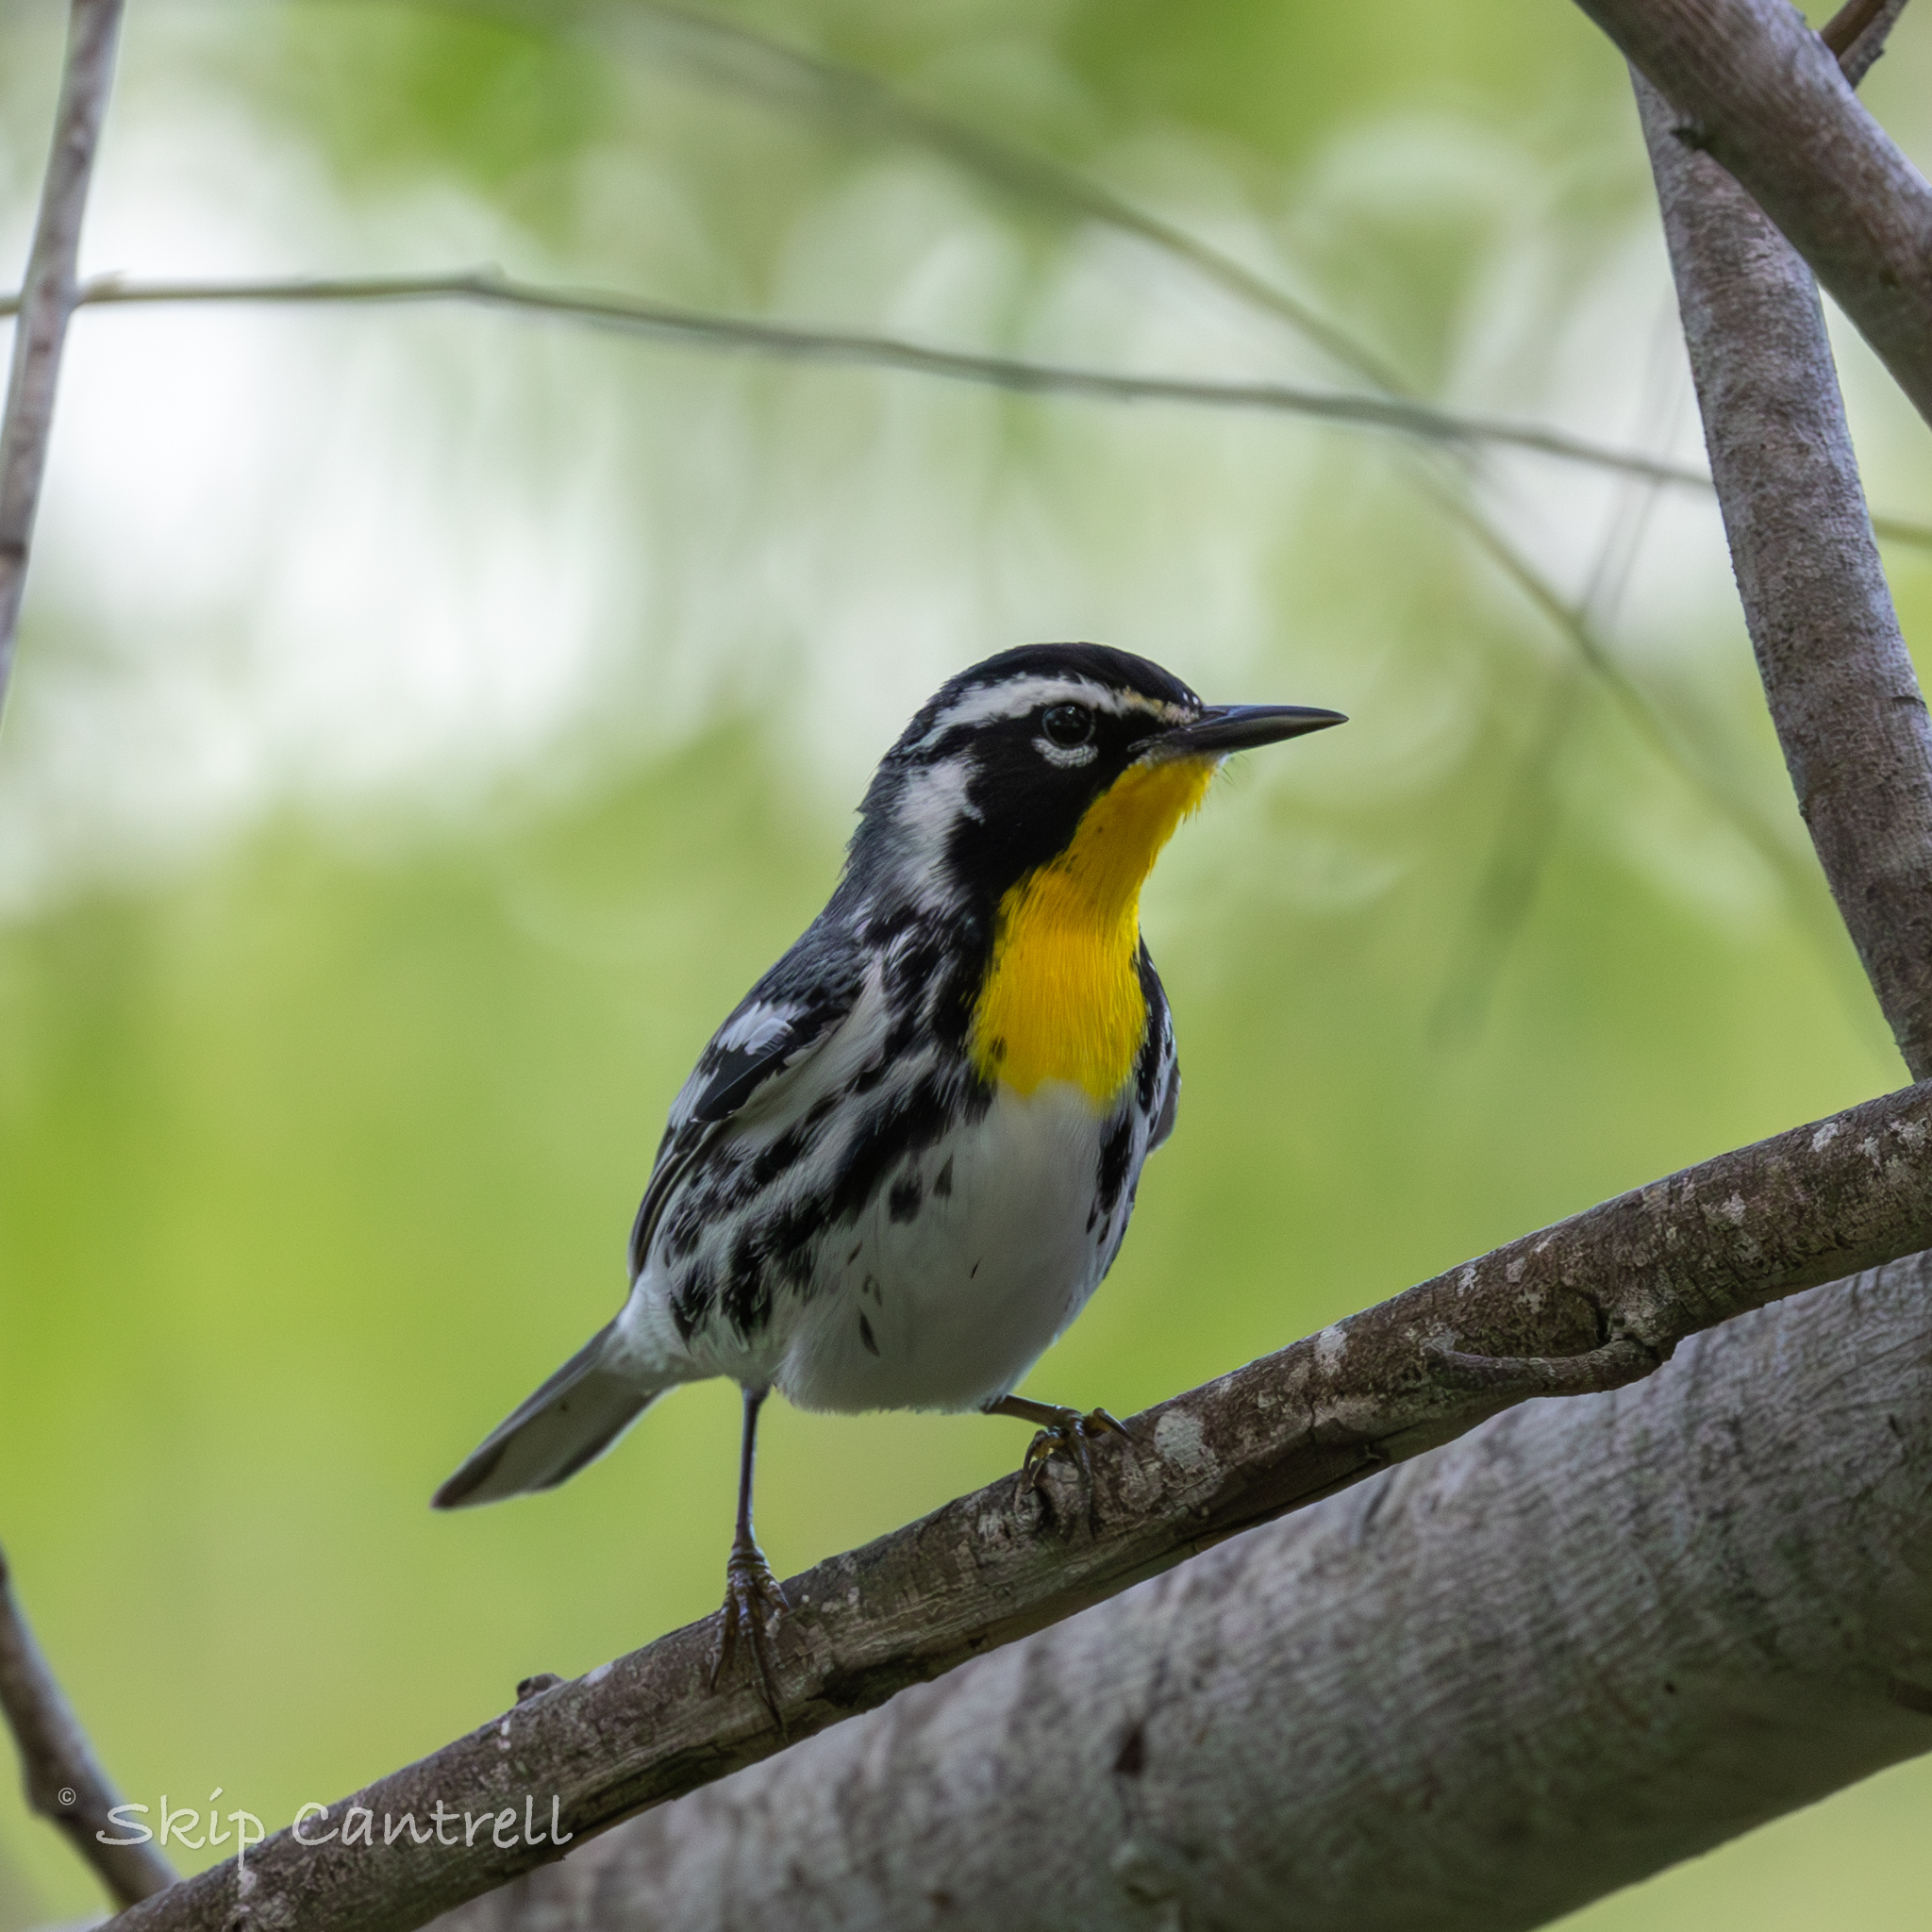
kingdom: Animalia
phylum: Chordata
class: Aves
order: Passeriformes
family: Parulidae
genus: Setophaga
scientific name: Setophaga dominica
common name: Yellow-throated warbler
